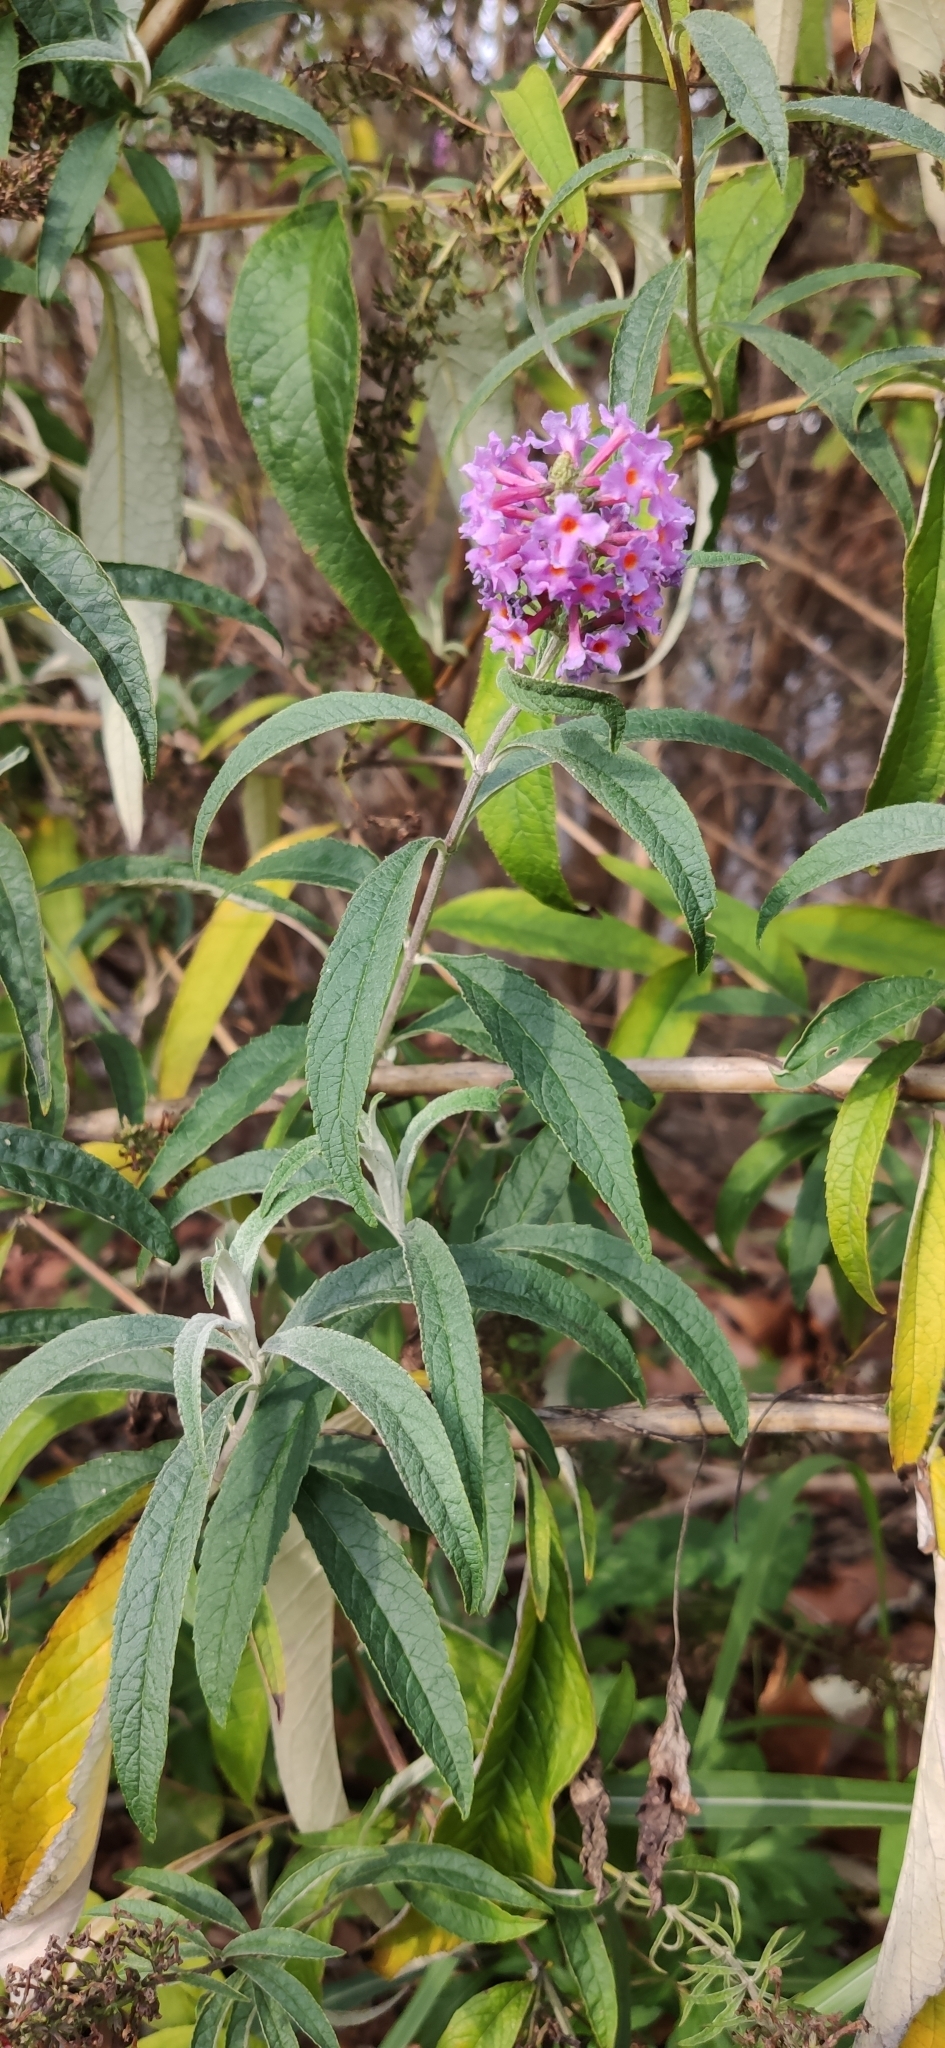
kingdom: Plantae
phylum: Tracheophyta
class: Magnoliopsida
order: Lamiales
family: Scrophulariaceae
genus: Buddleja
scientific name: Buddleja davidii
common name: Butterfly-bush
